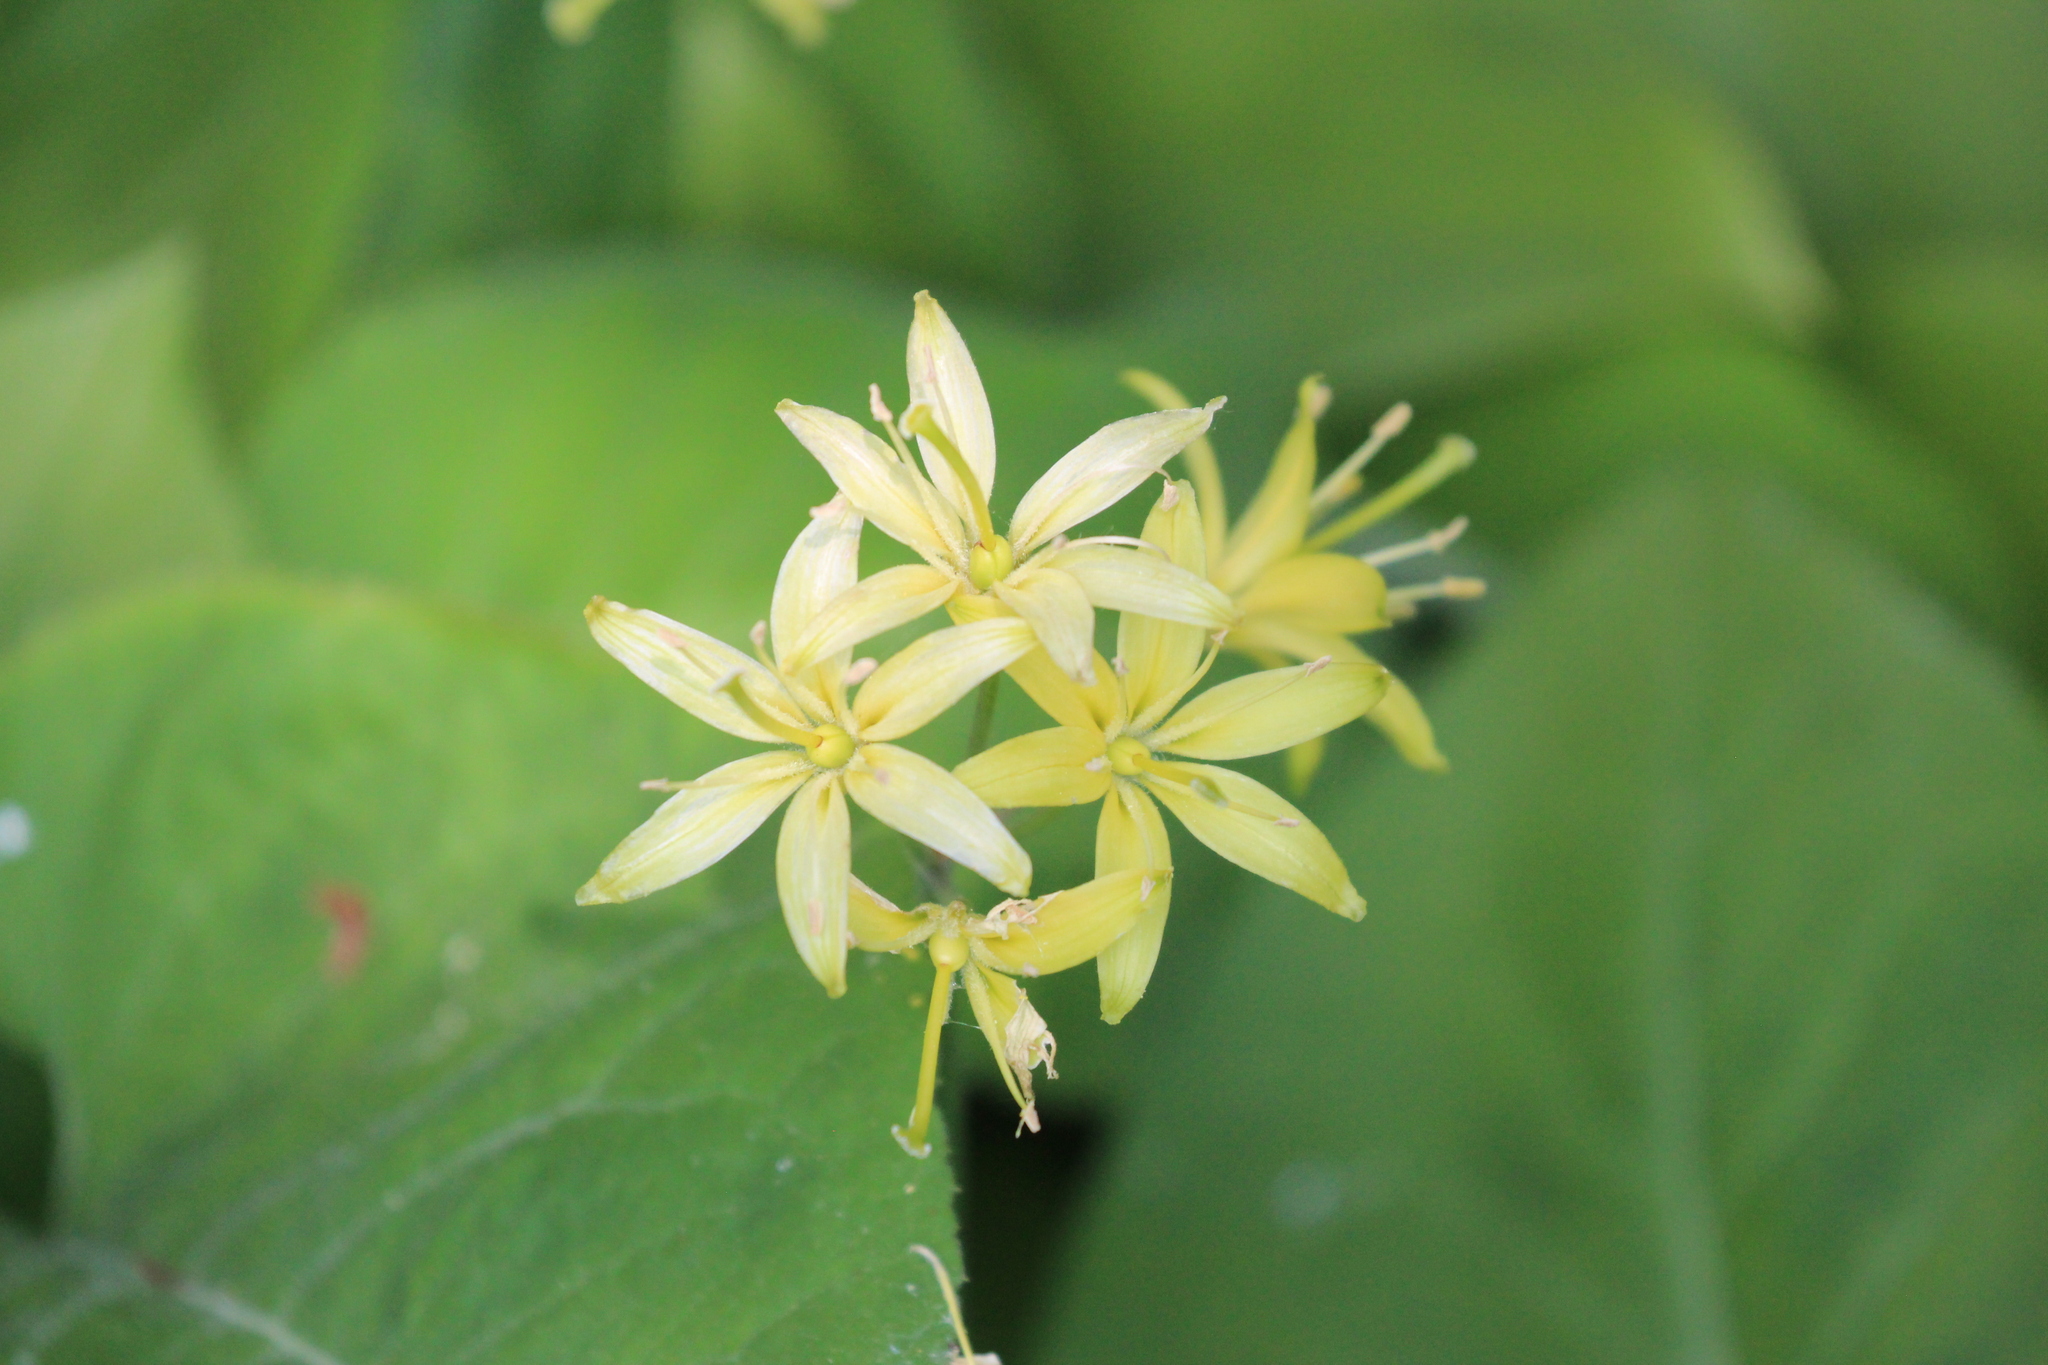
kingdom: Plantae
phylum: Tracheophyta
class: Liliopsida
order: Liliales
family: Liliaceae
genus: Clintonia
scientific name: Clintonia borealis
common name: Yellow clintonia
